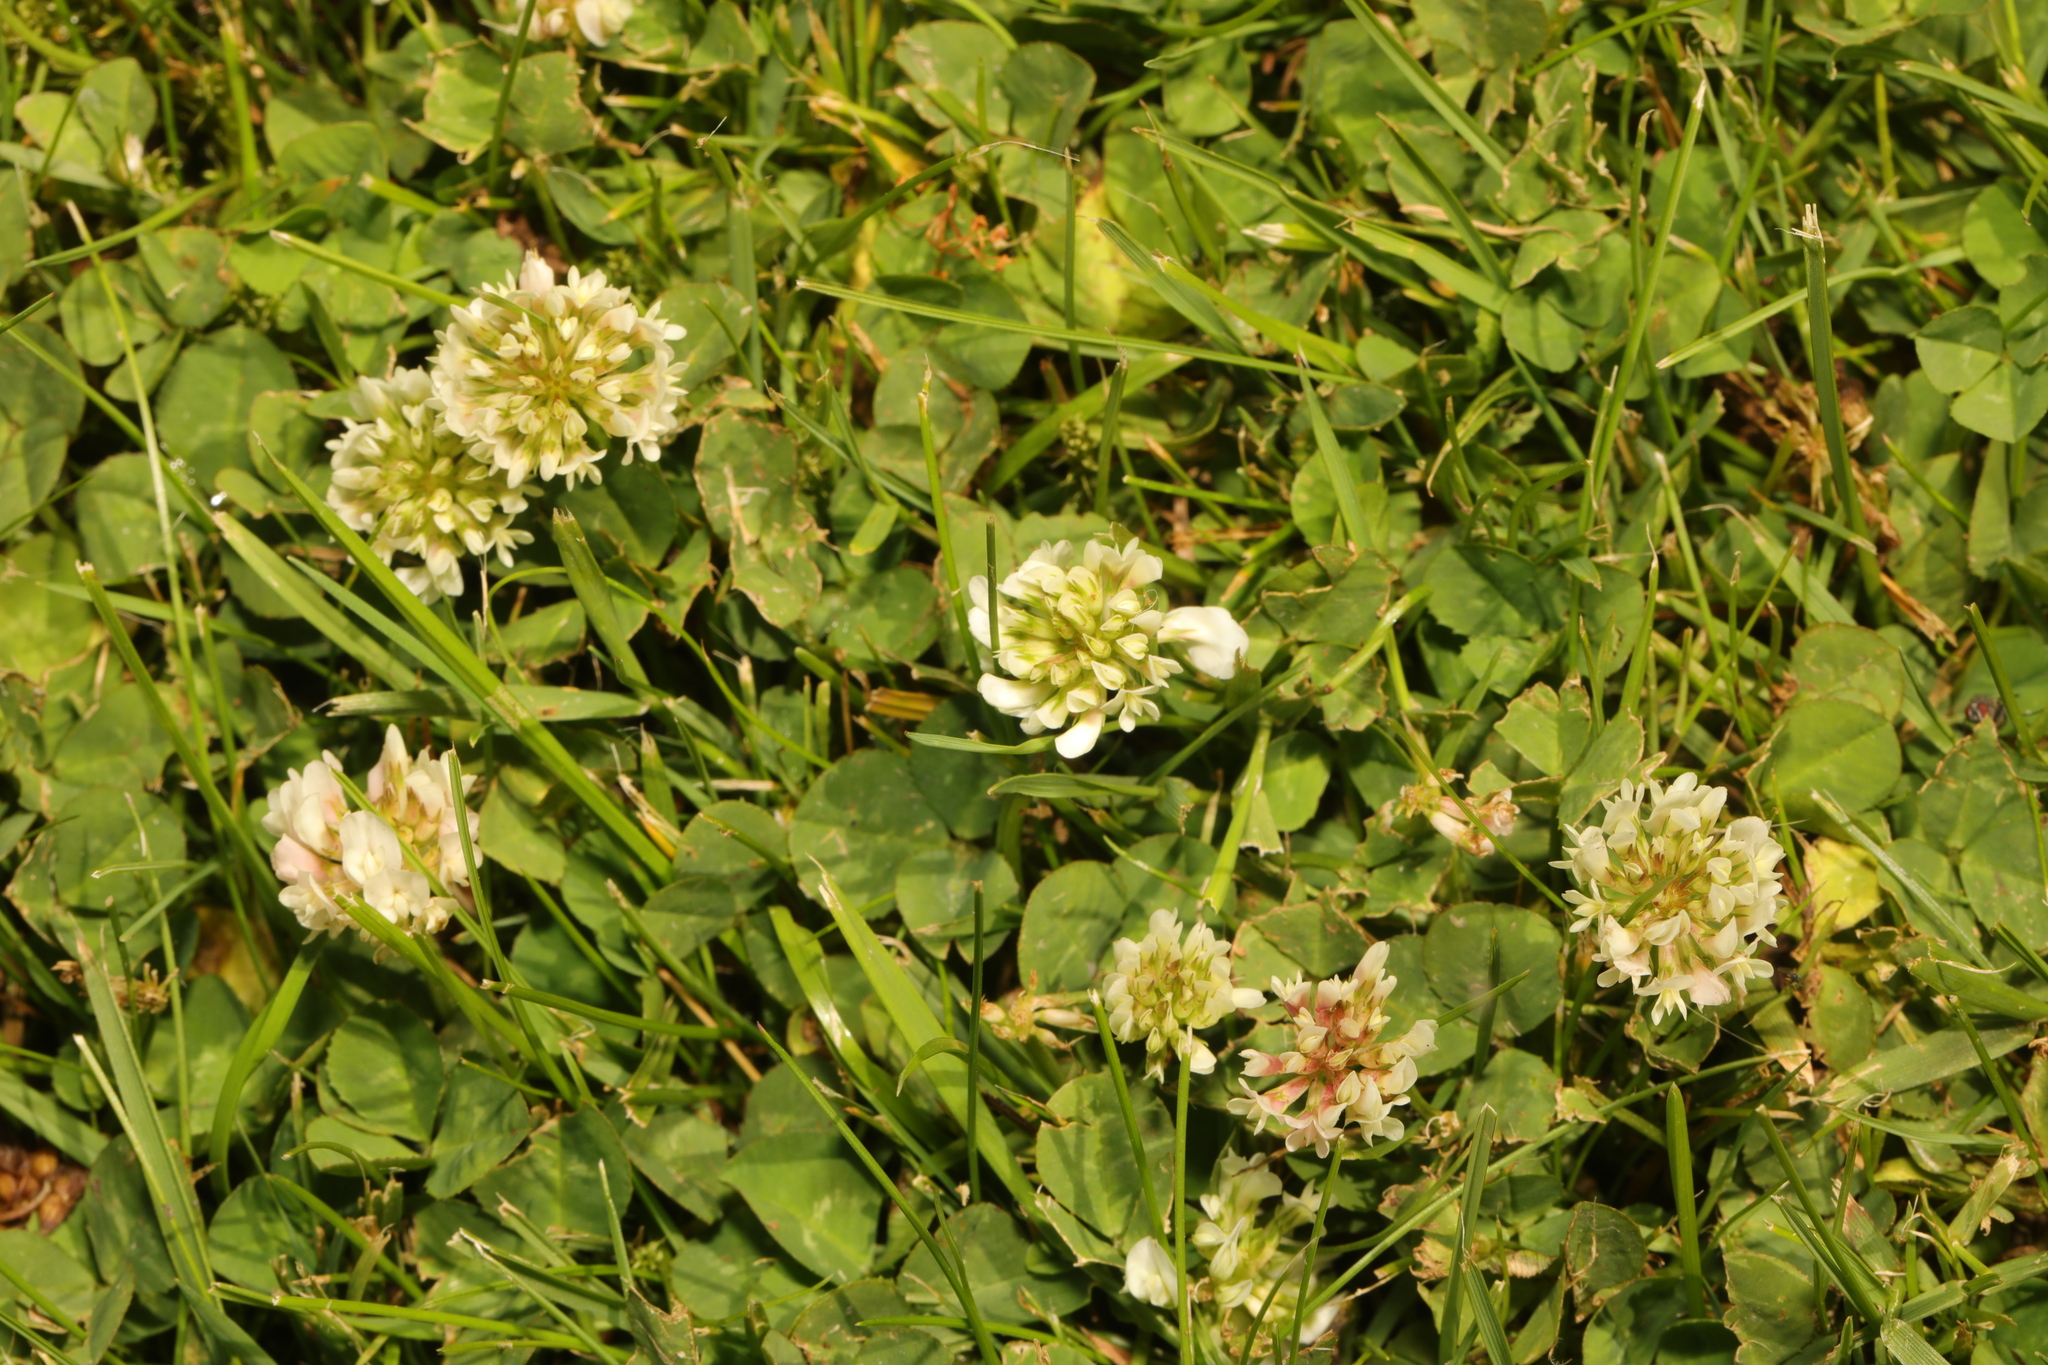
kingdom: Plantae
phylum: Tracheophyta
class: Magnoliopsida
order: Fabales
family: Fabaceae
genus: Trifolium
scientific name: Trifolium repens
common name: White clover
